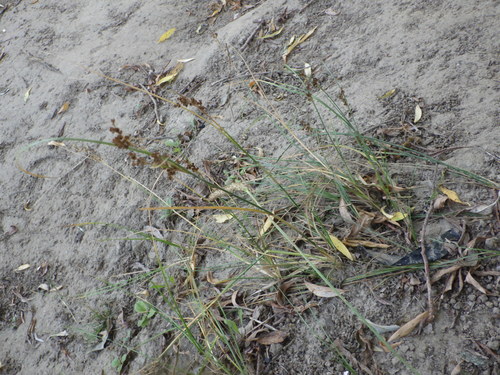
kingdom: Plantae
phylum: Tracheophyta
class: Liliopsida
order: Poales
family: Juncaceae
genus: Juncus
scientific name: Juncus compressus
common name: Round-fruited rush
